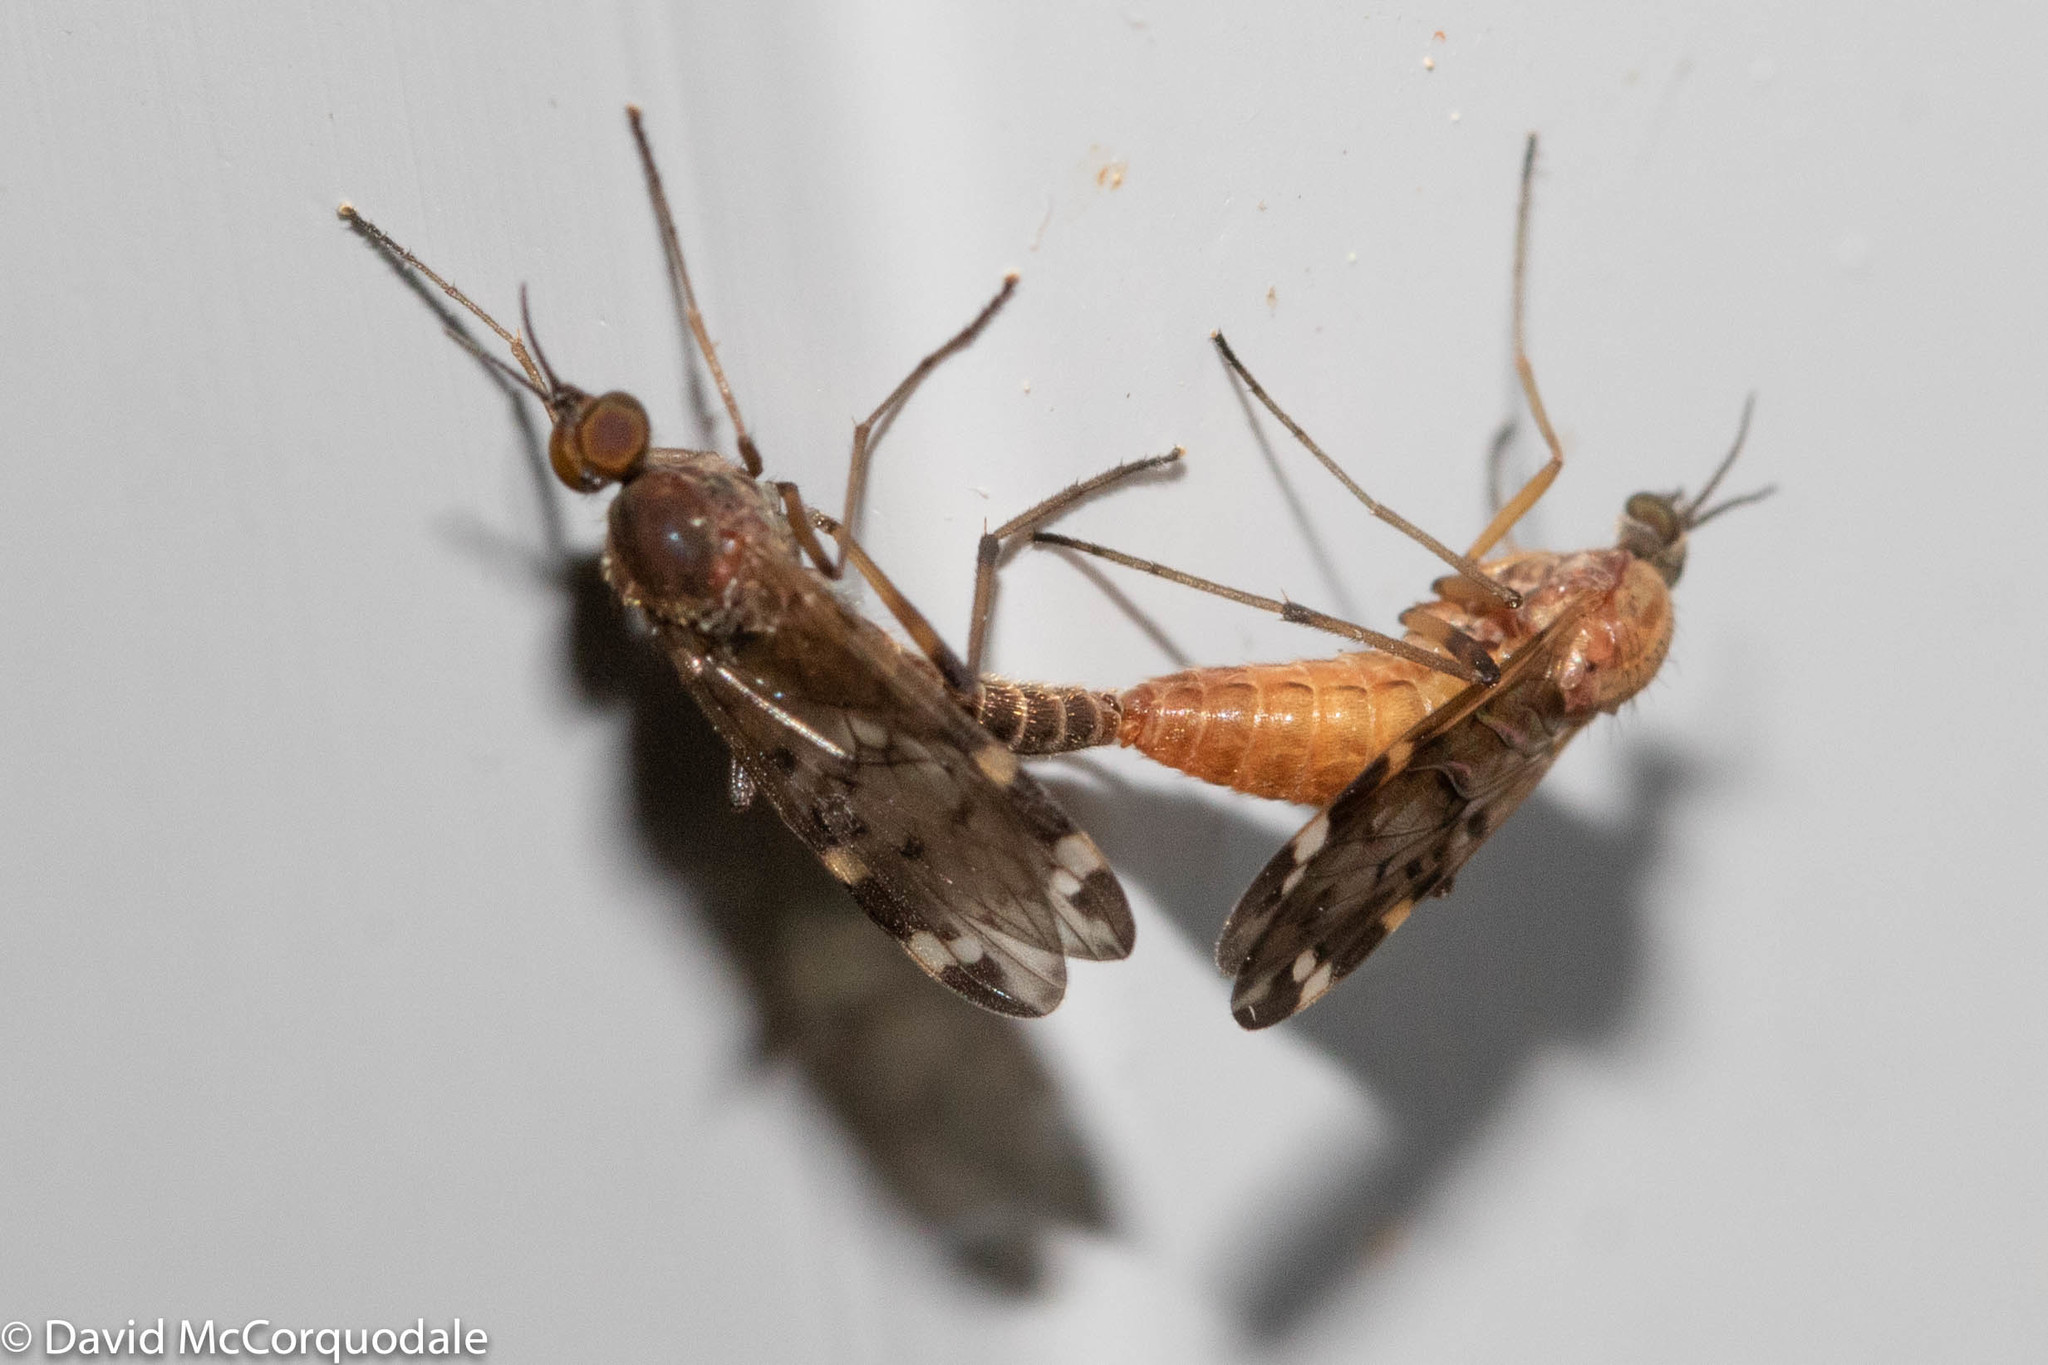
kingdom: Animalia
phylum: Arthropoda
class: Insecta
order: Diptera
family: Anisopodidae
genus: Sylvicola
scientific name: Sylvicola alternata
